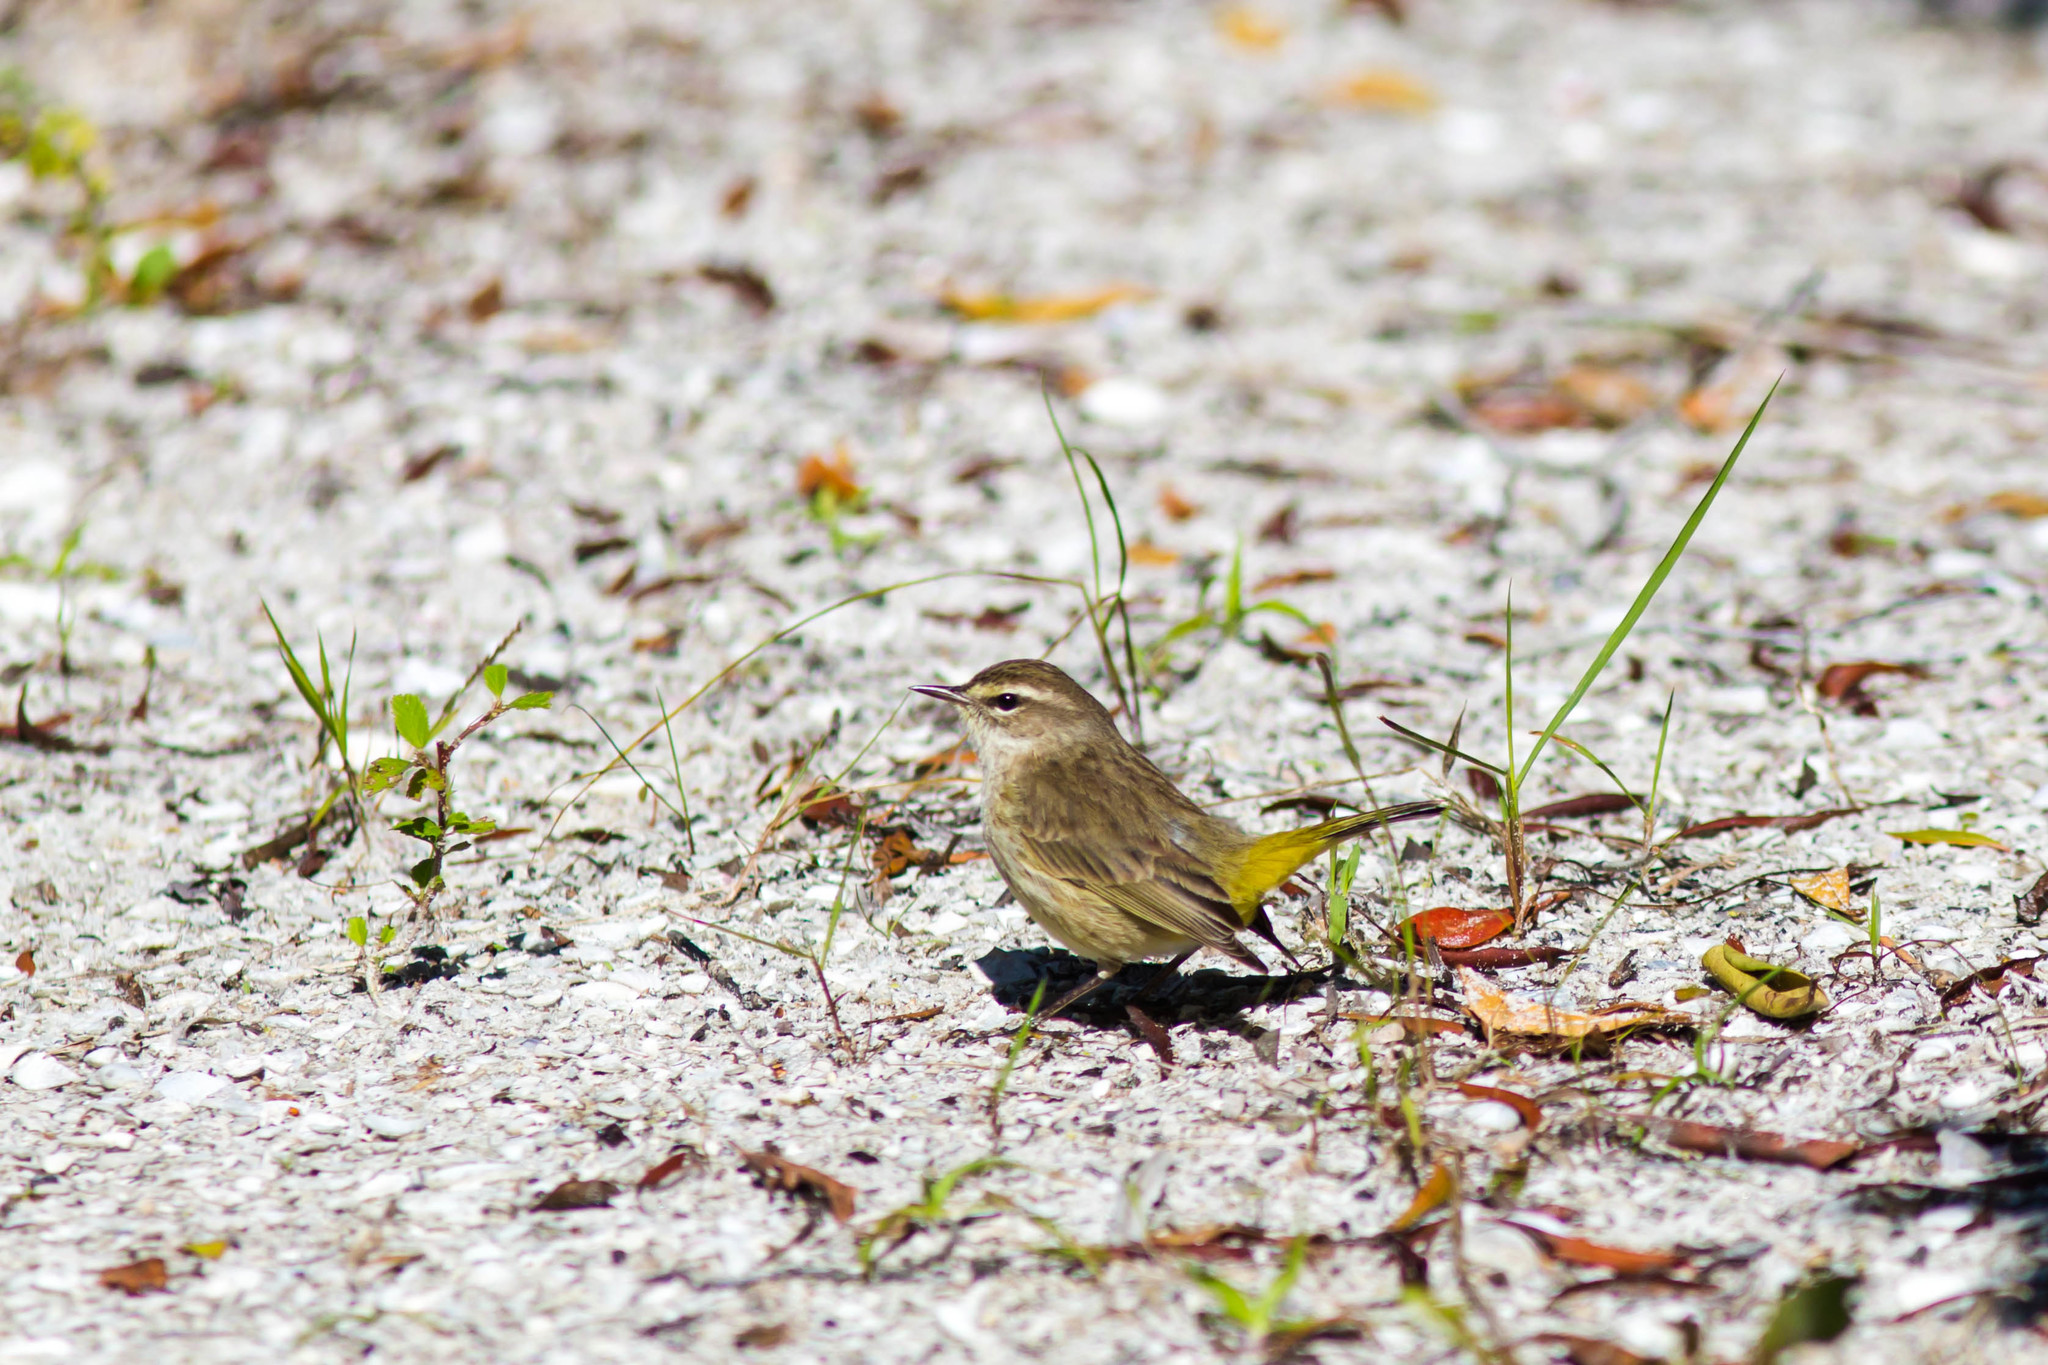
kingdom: Animalia
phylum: Chordata
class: Aves
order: Passeriformes
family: Parulidae
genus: Setophaga
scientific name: Setophaga palmarum
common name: Palm warbler
